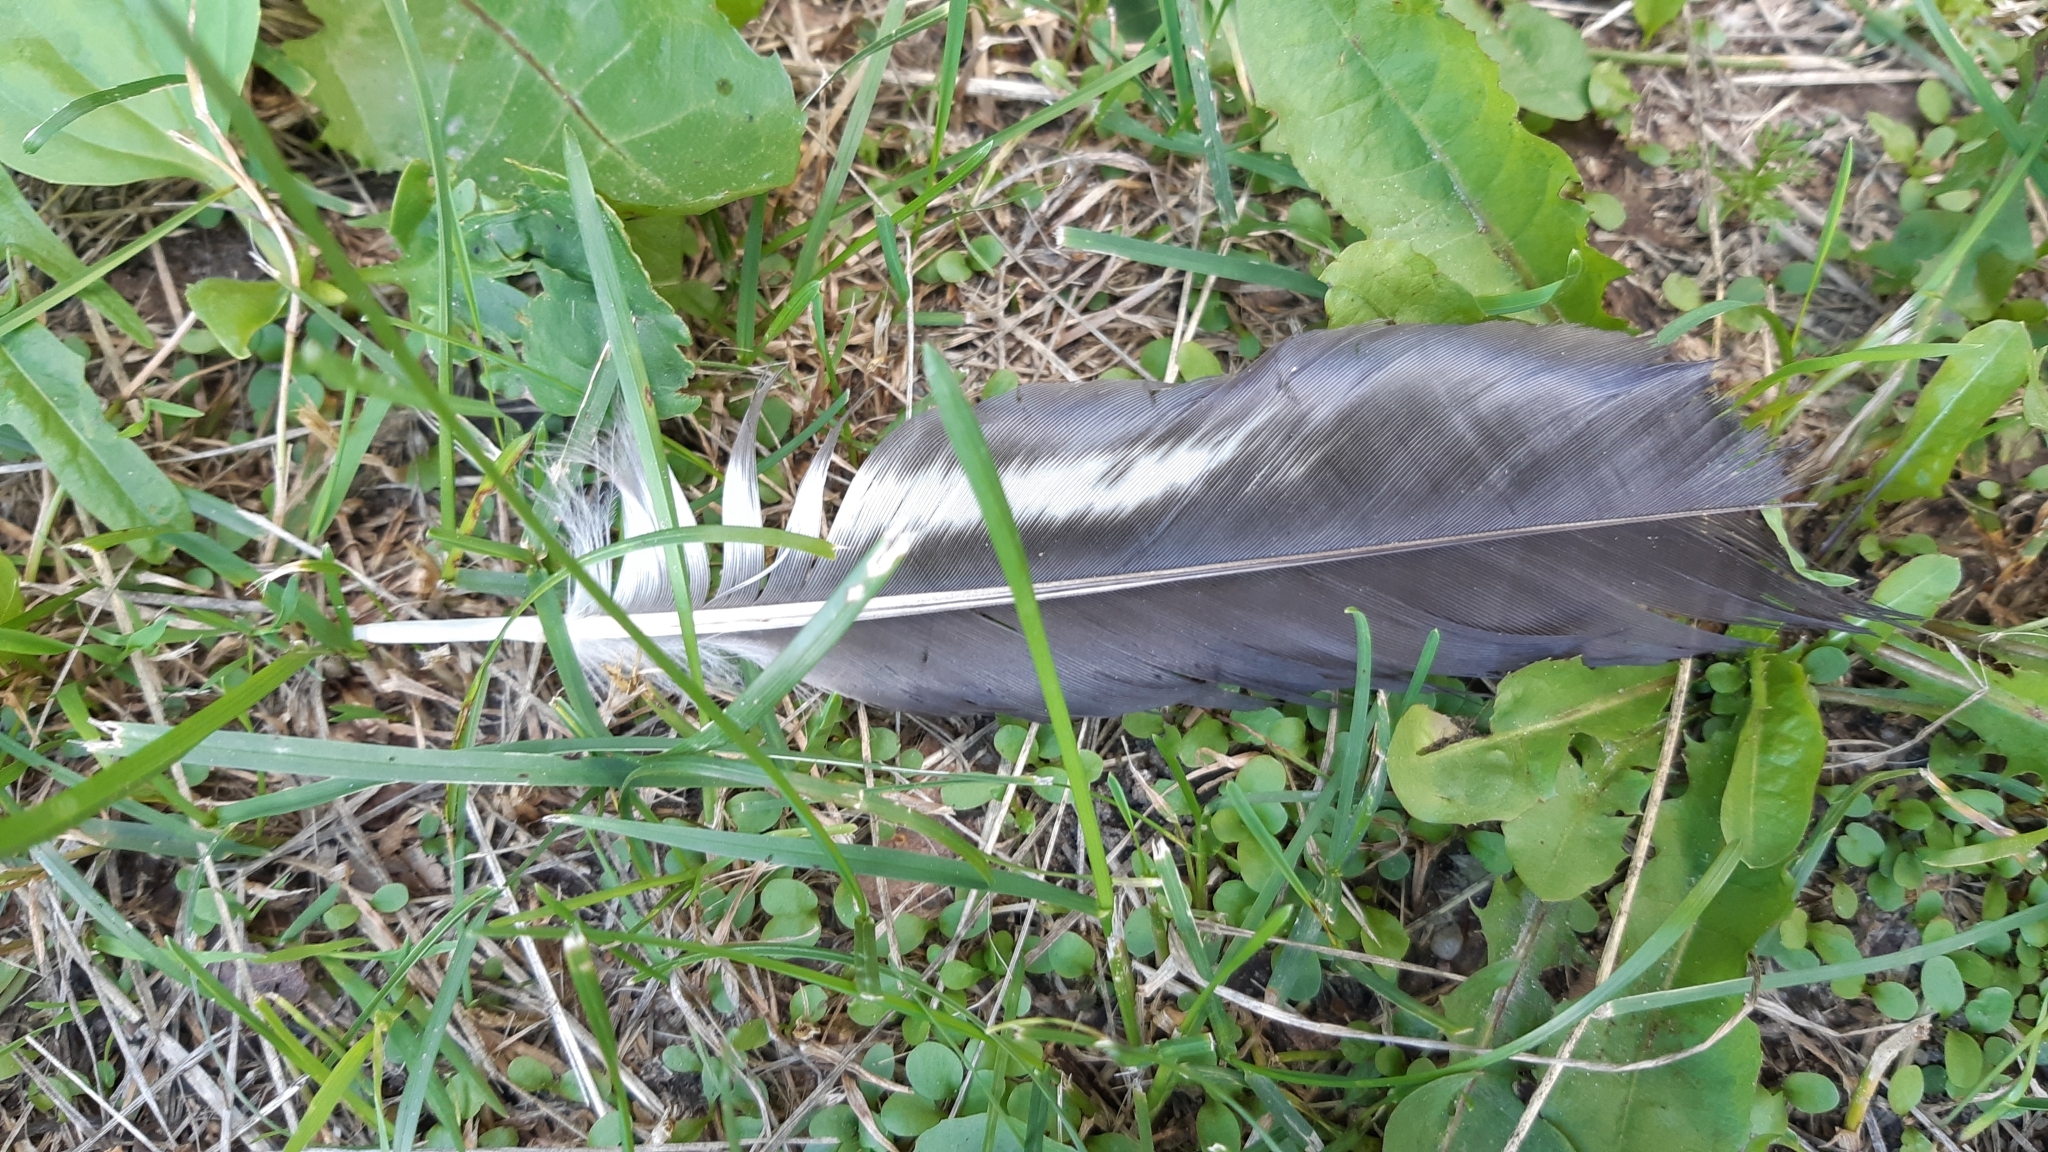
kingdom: Animalia
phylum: Chordata
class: Aves
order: Passeriformes
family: Corvidae
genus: Corvus
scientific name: Corvus cornix
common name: Hooded crow
